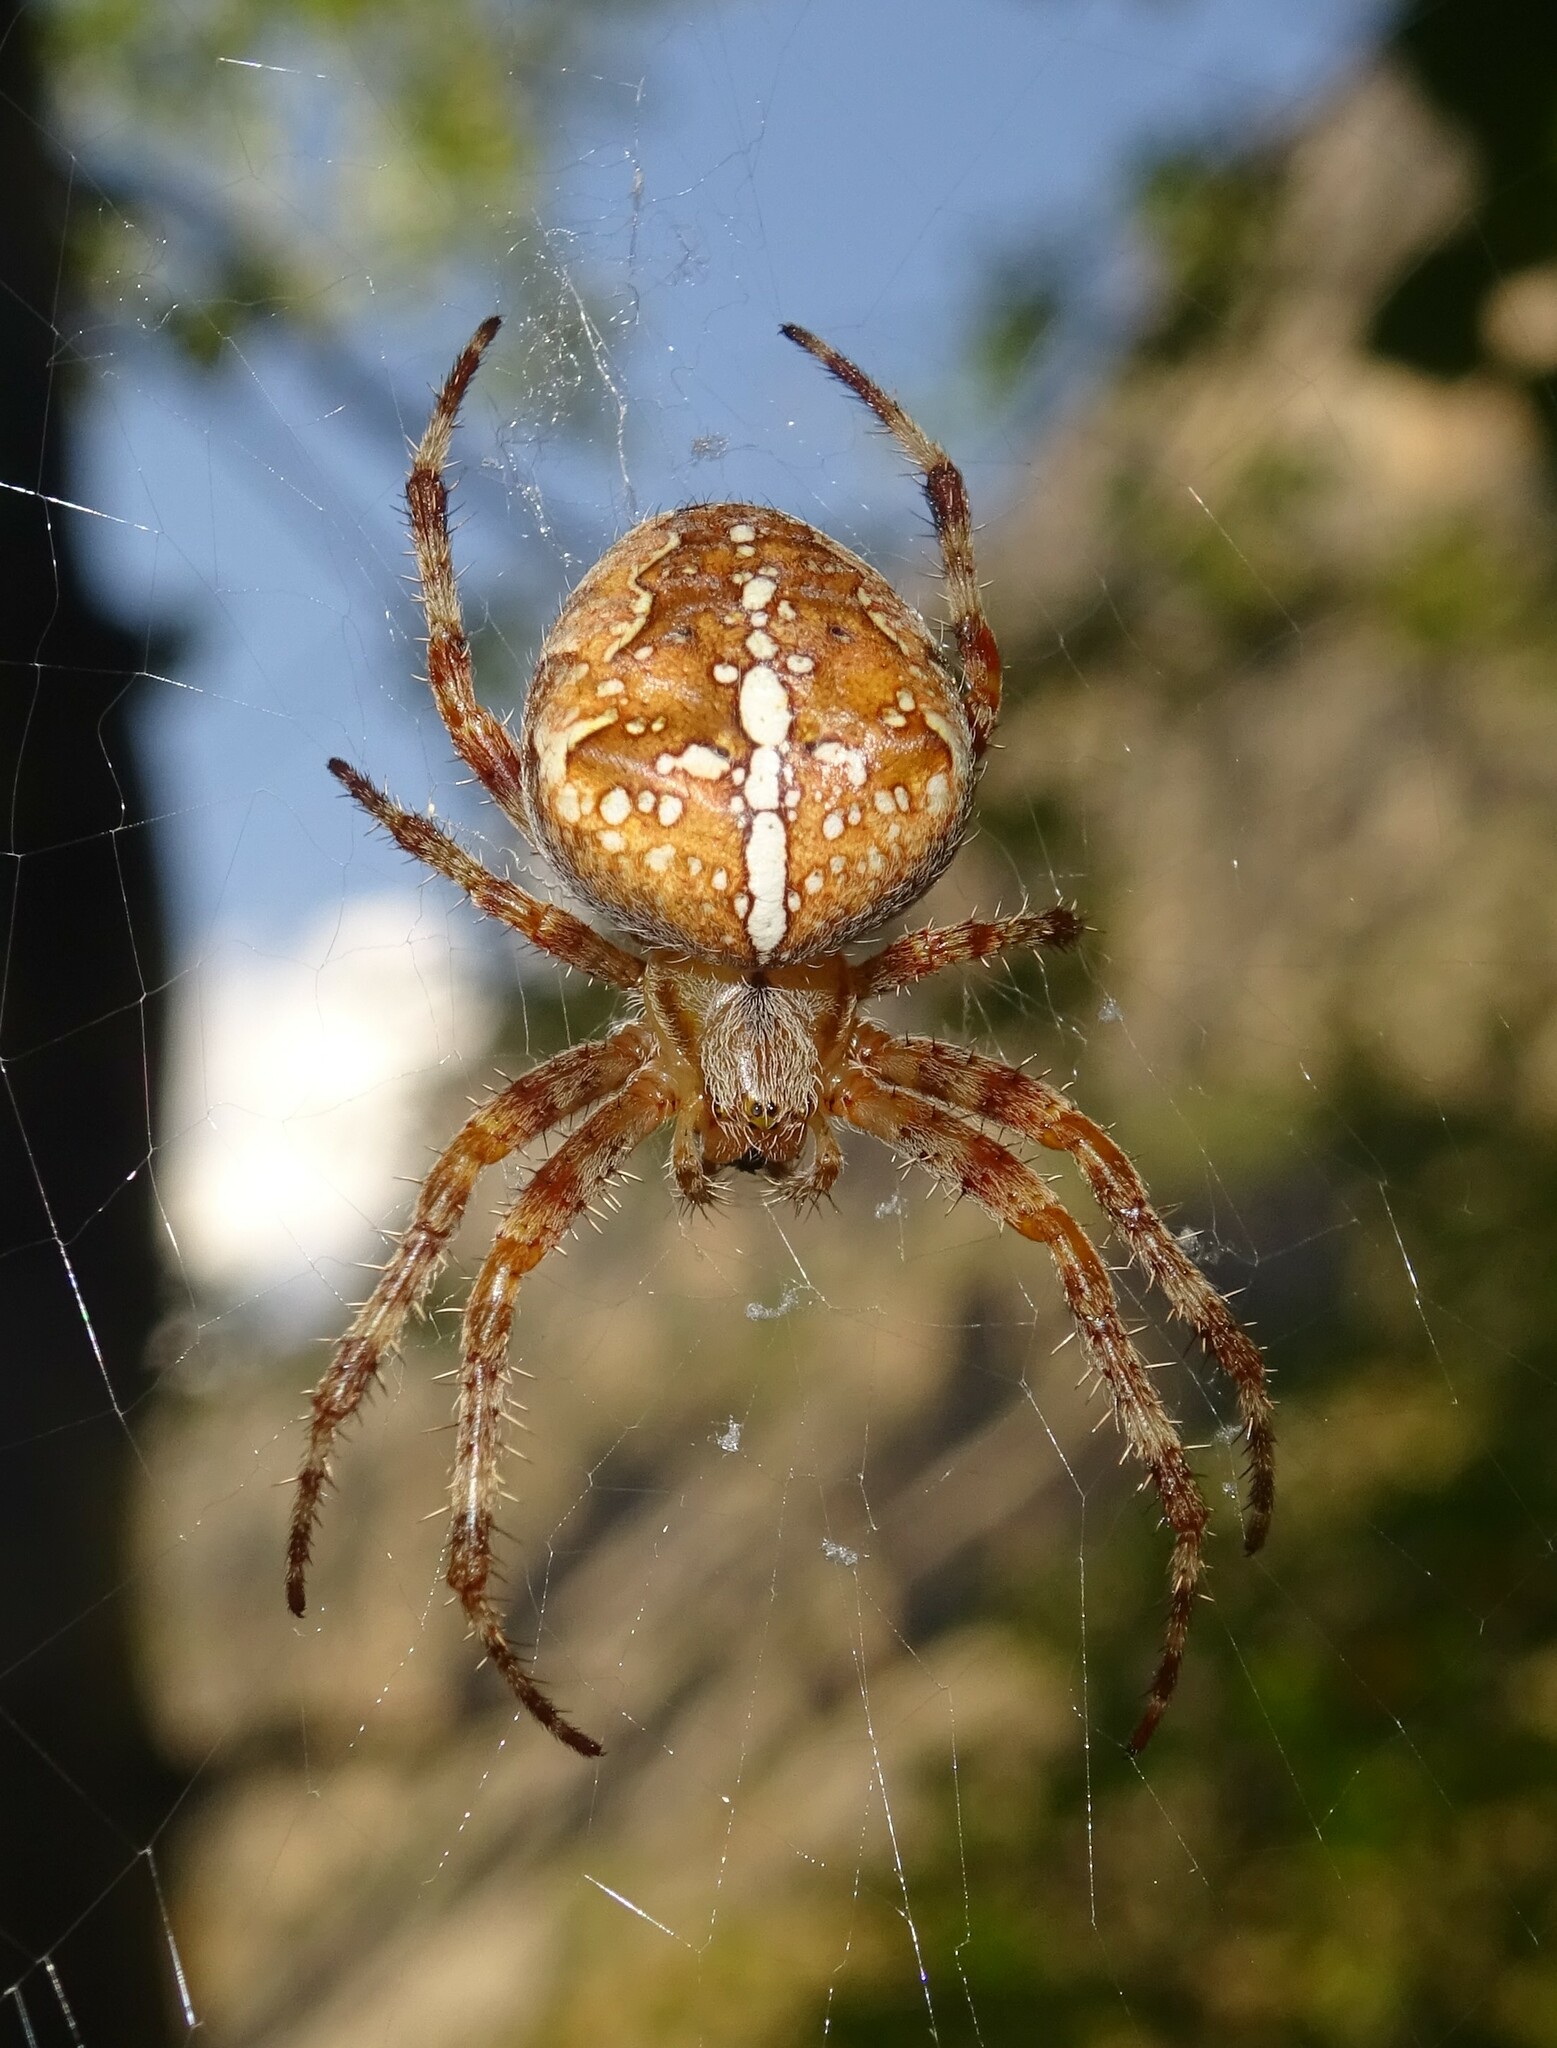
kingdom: Animalia
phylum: Arthropoda
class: Arachnida
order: Araneae
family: Araneidae
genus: Araneus
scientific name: Araneus diadematus
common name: Cross orbweaver
